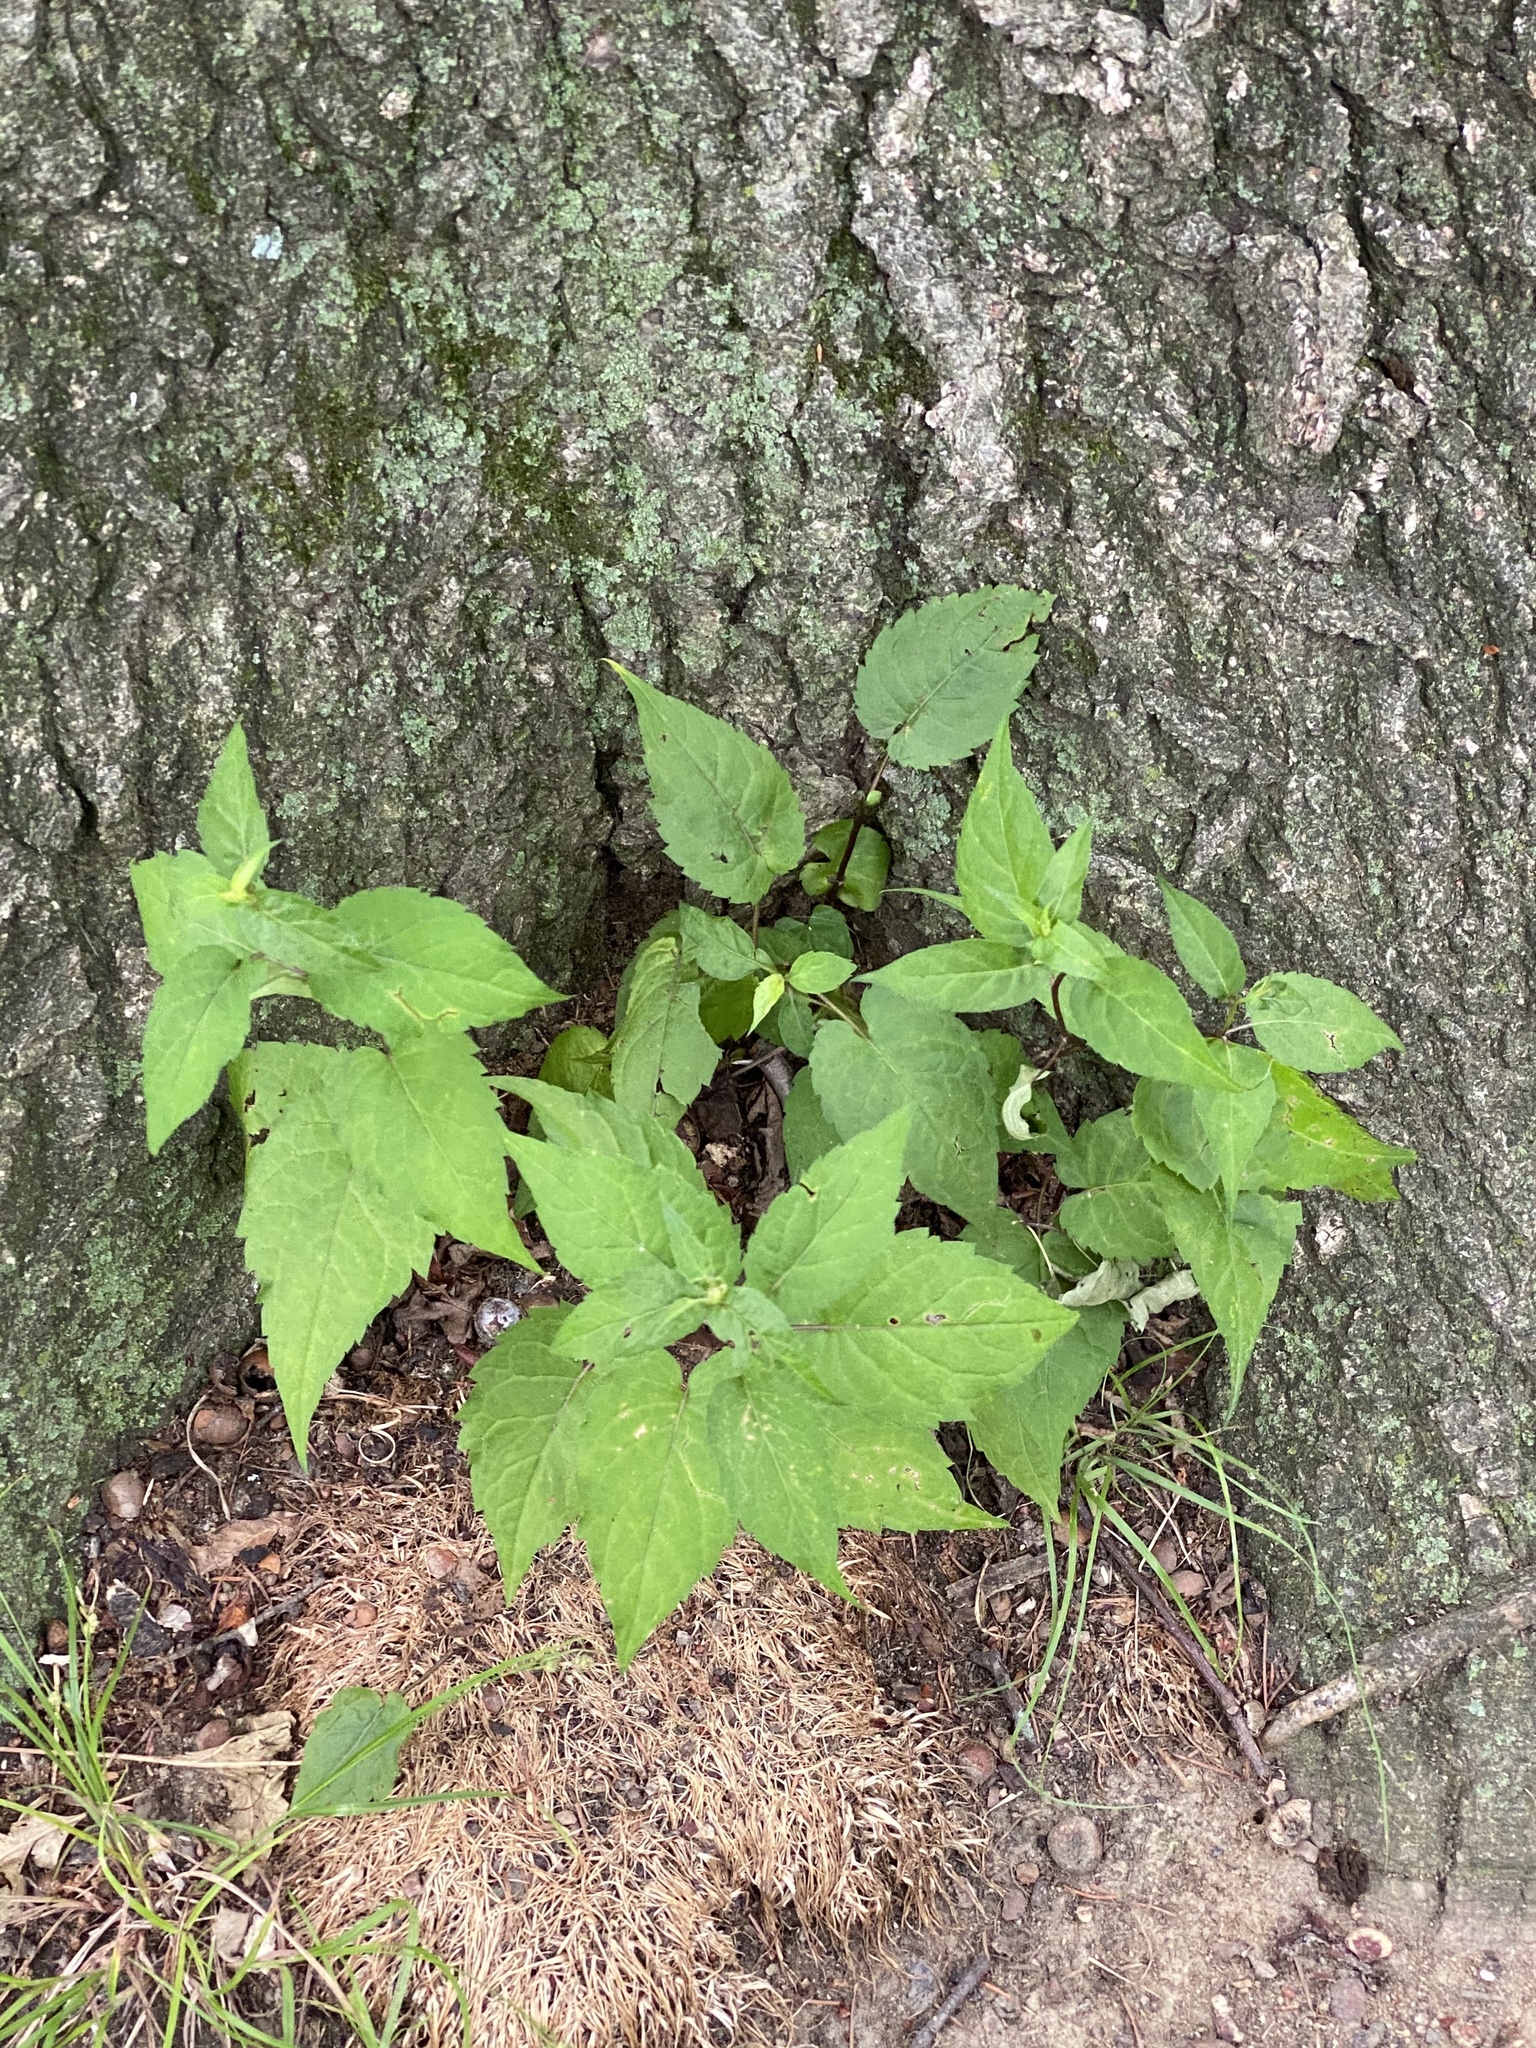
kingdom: Plantae
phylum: Tracheophyta
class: Magnoliopsida
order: Asterales
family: Asteraceae
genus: Eurybia
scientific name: Eurybia divaricata
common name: White wood aster
